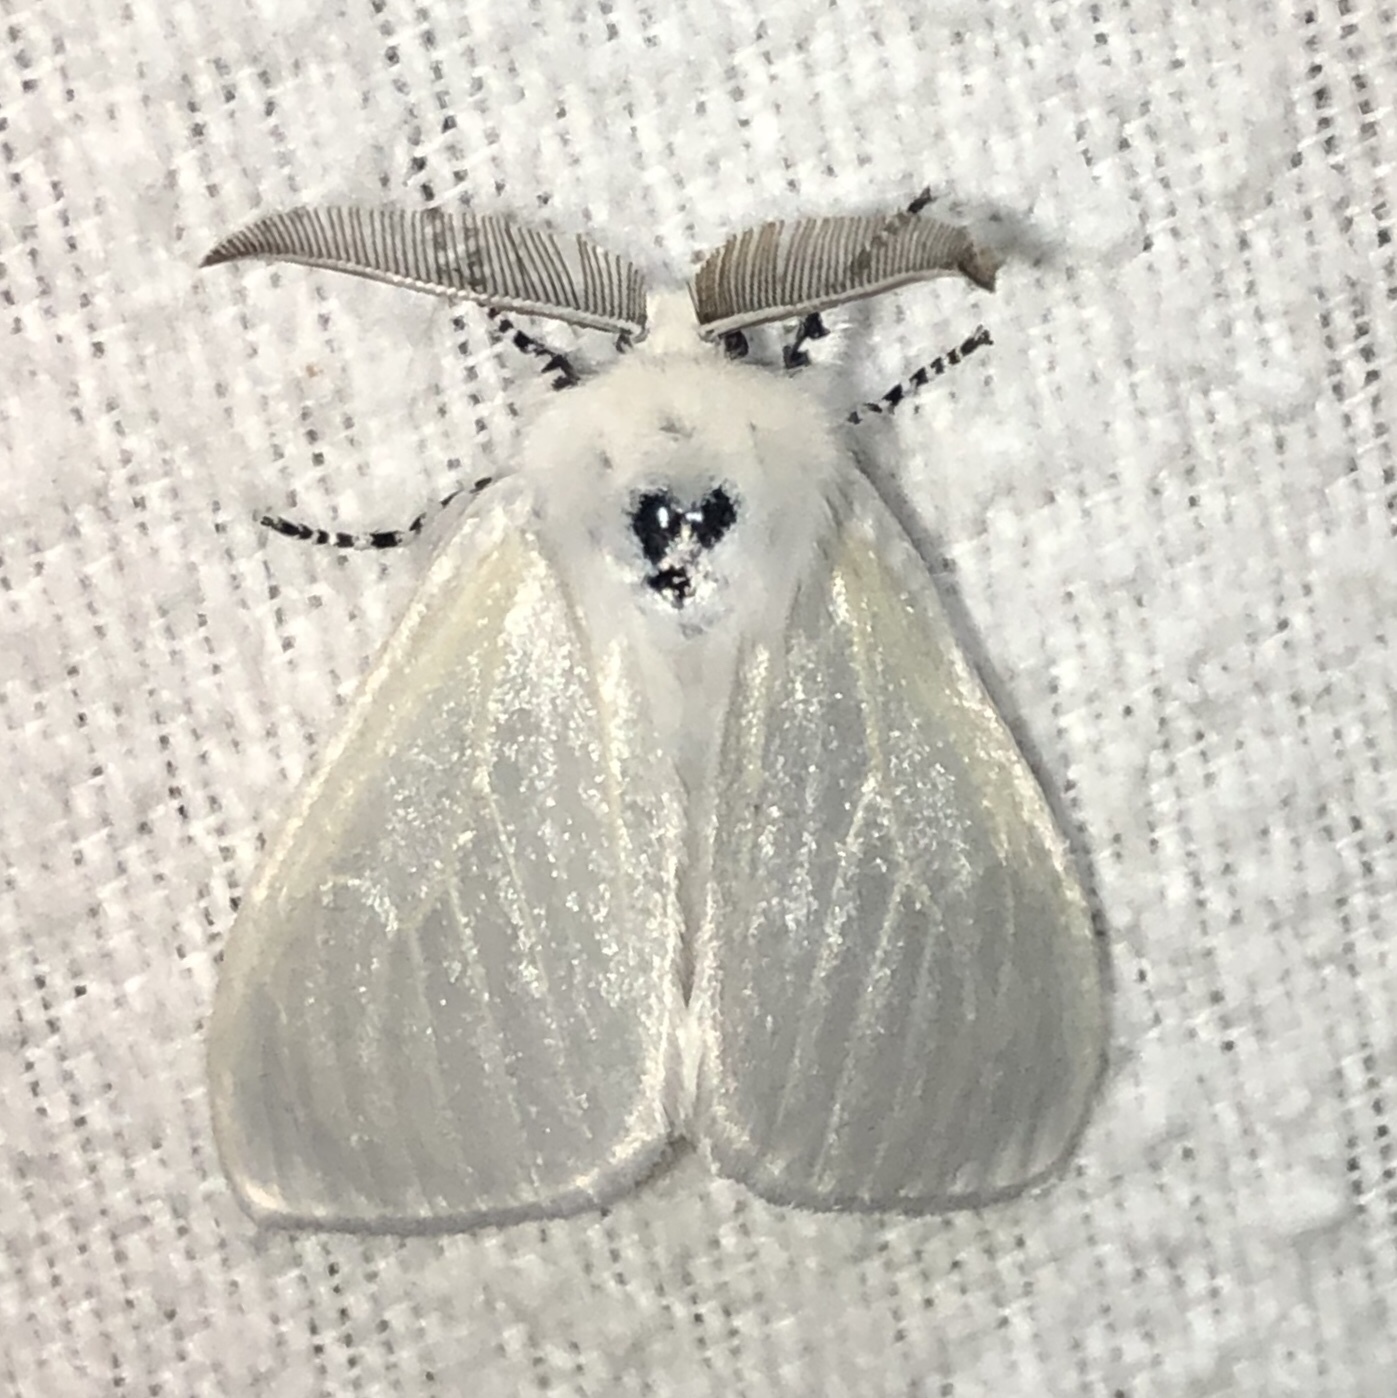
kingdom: Animalia
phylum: Arthropoda
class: Insecta
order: Lepidoptera
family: Erebidae
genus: Leucoma
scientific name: Leucoma salicis
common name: White satin moth
